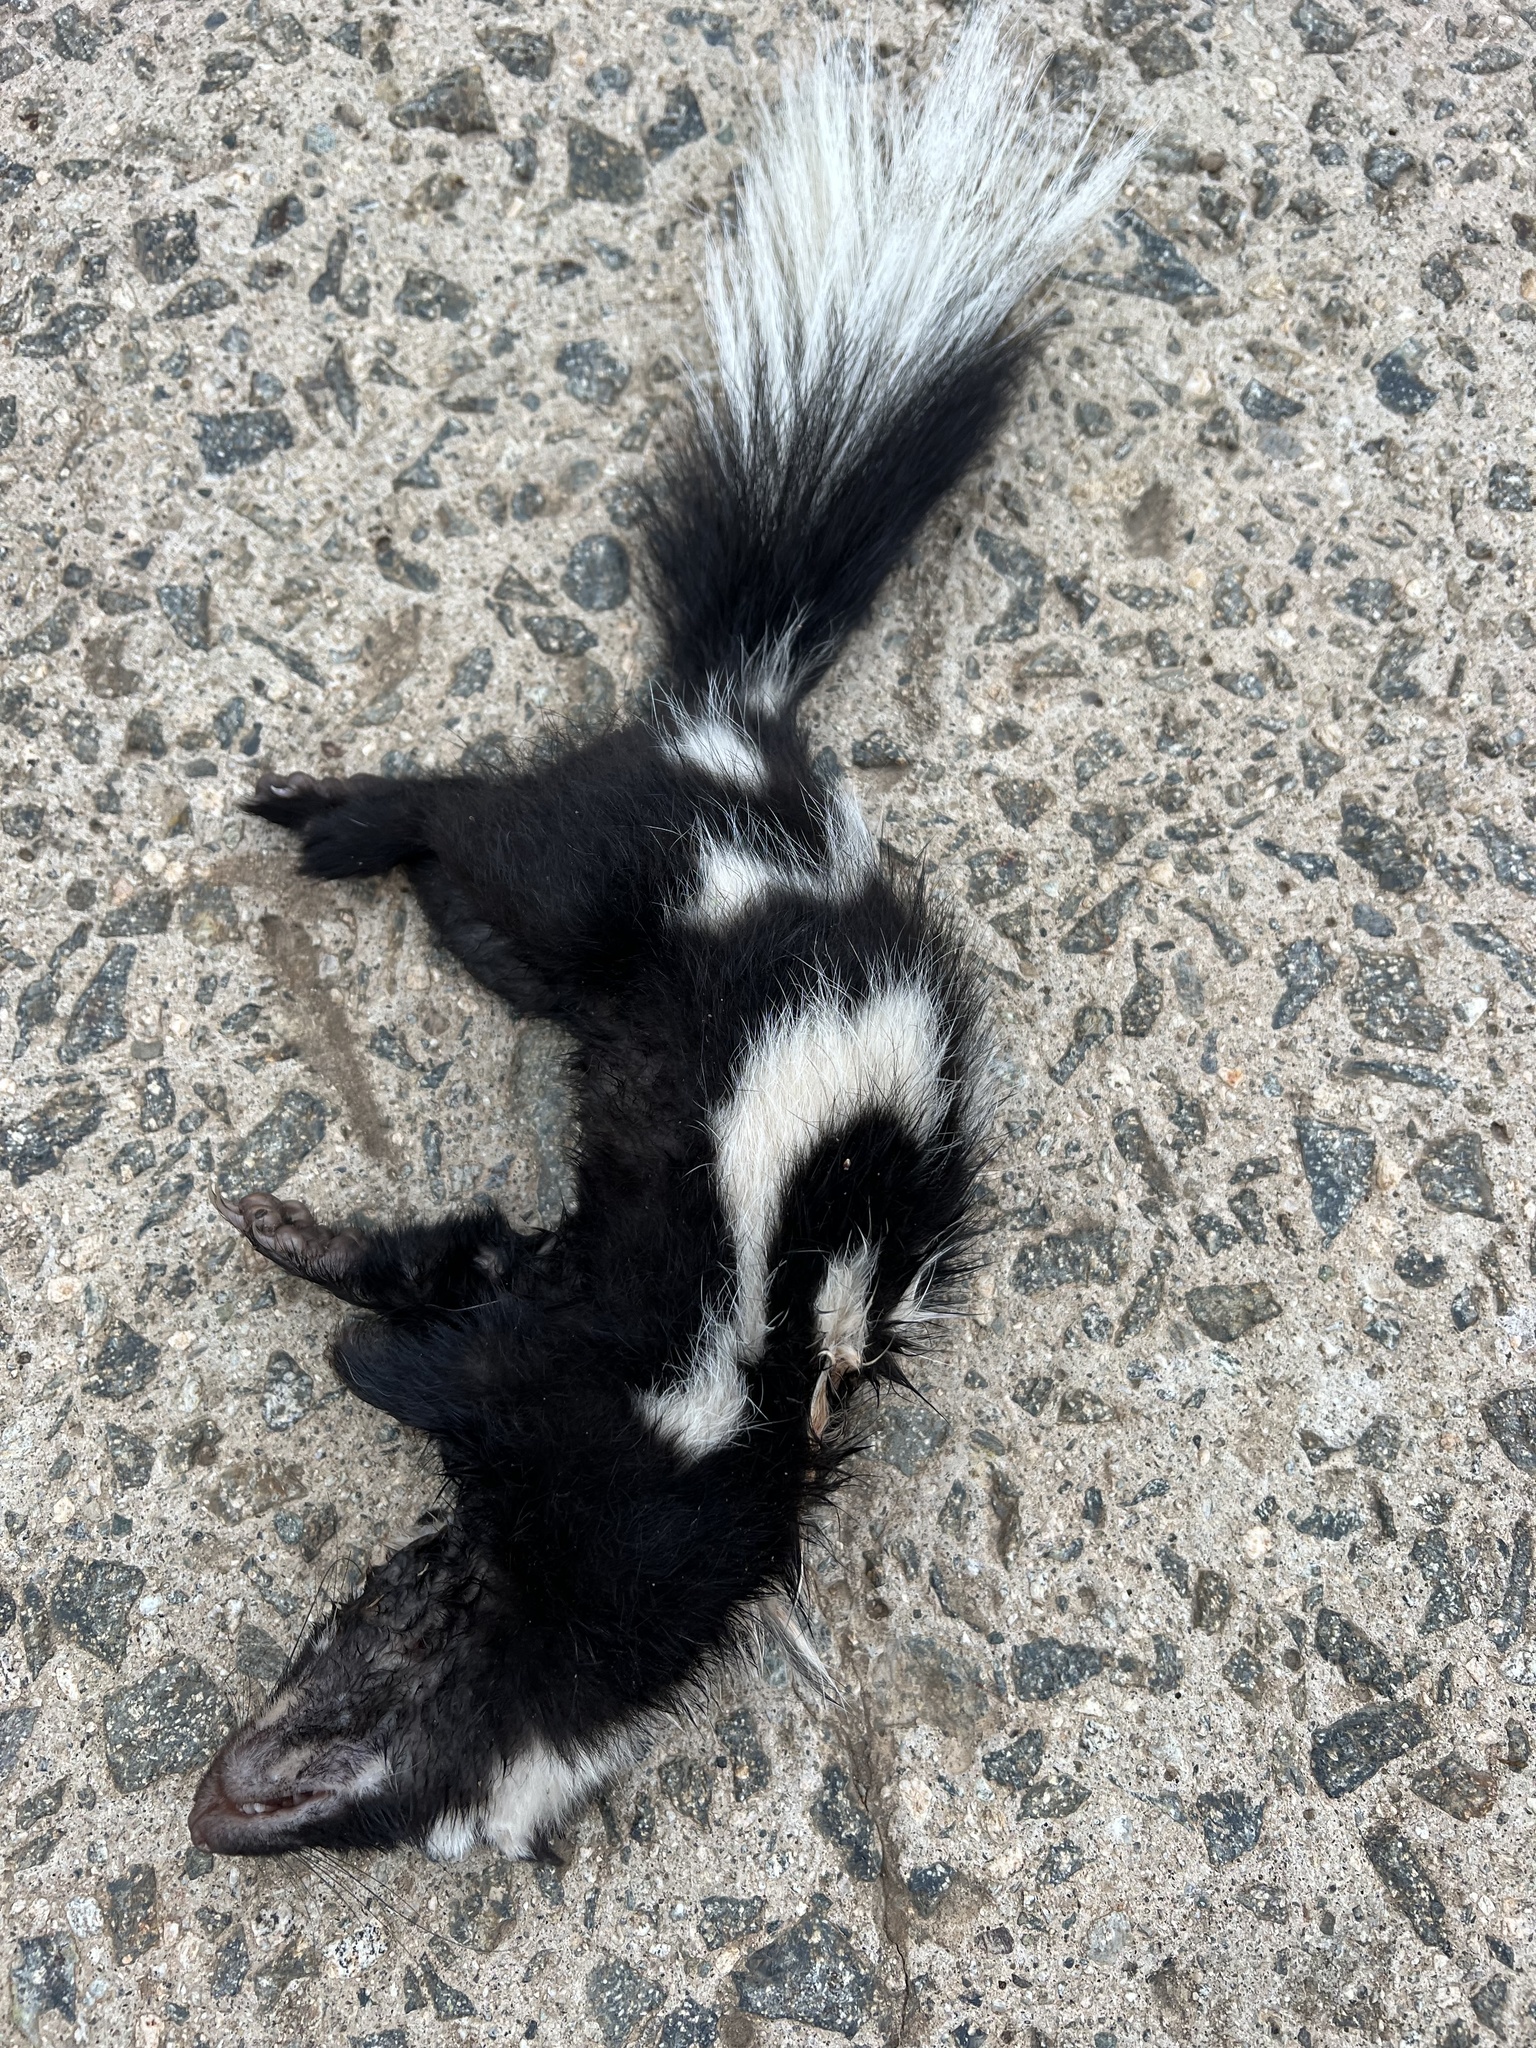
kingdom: Animalia
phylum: Chordata
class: Mammalia
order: Carnivora
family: Mephitidae
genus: Spilogale
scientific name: Spilogale gracilis
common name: Western spotted skunk
